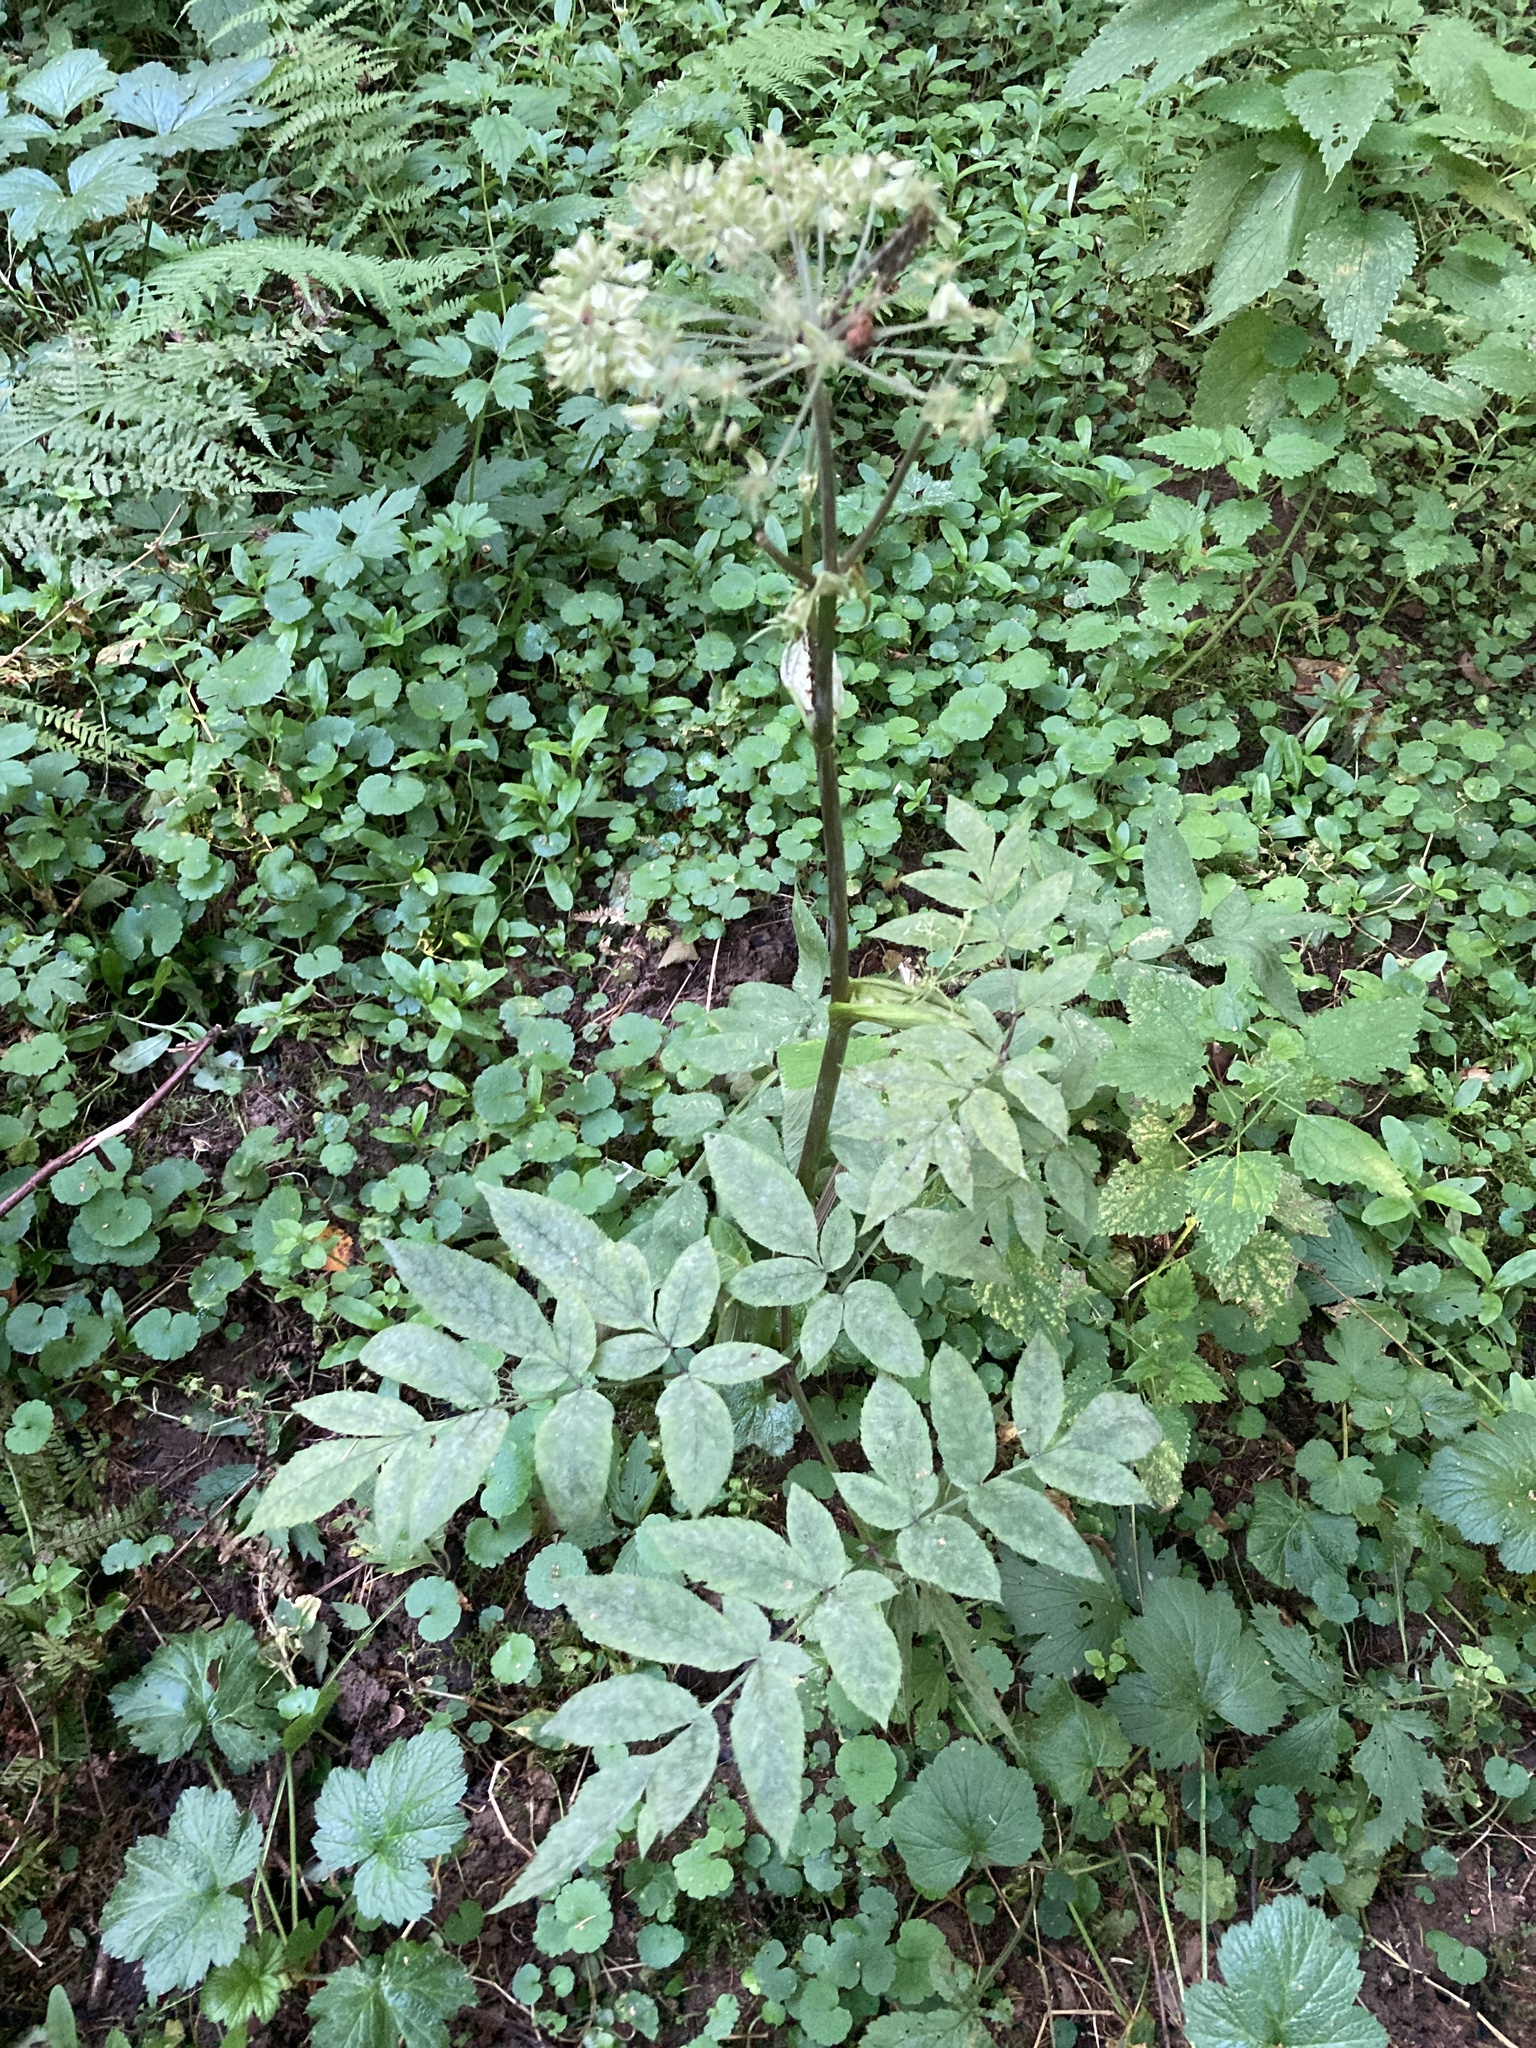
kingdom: Plantae
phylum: Tracheophyta
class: Magnoliopsida
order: Apiales
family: Apiaceae
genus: Angelica
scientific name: Angelica sylvestris
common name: Wild angelica
